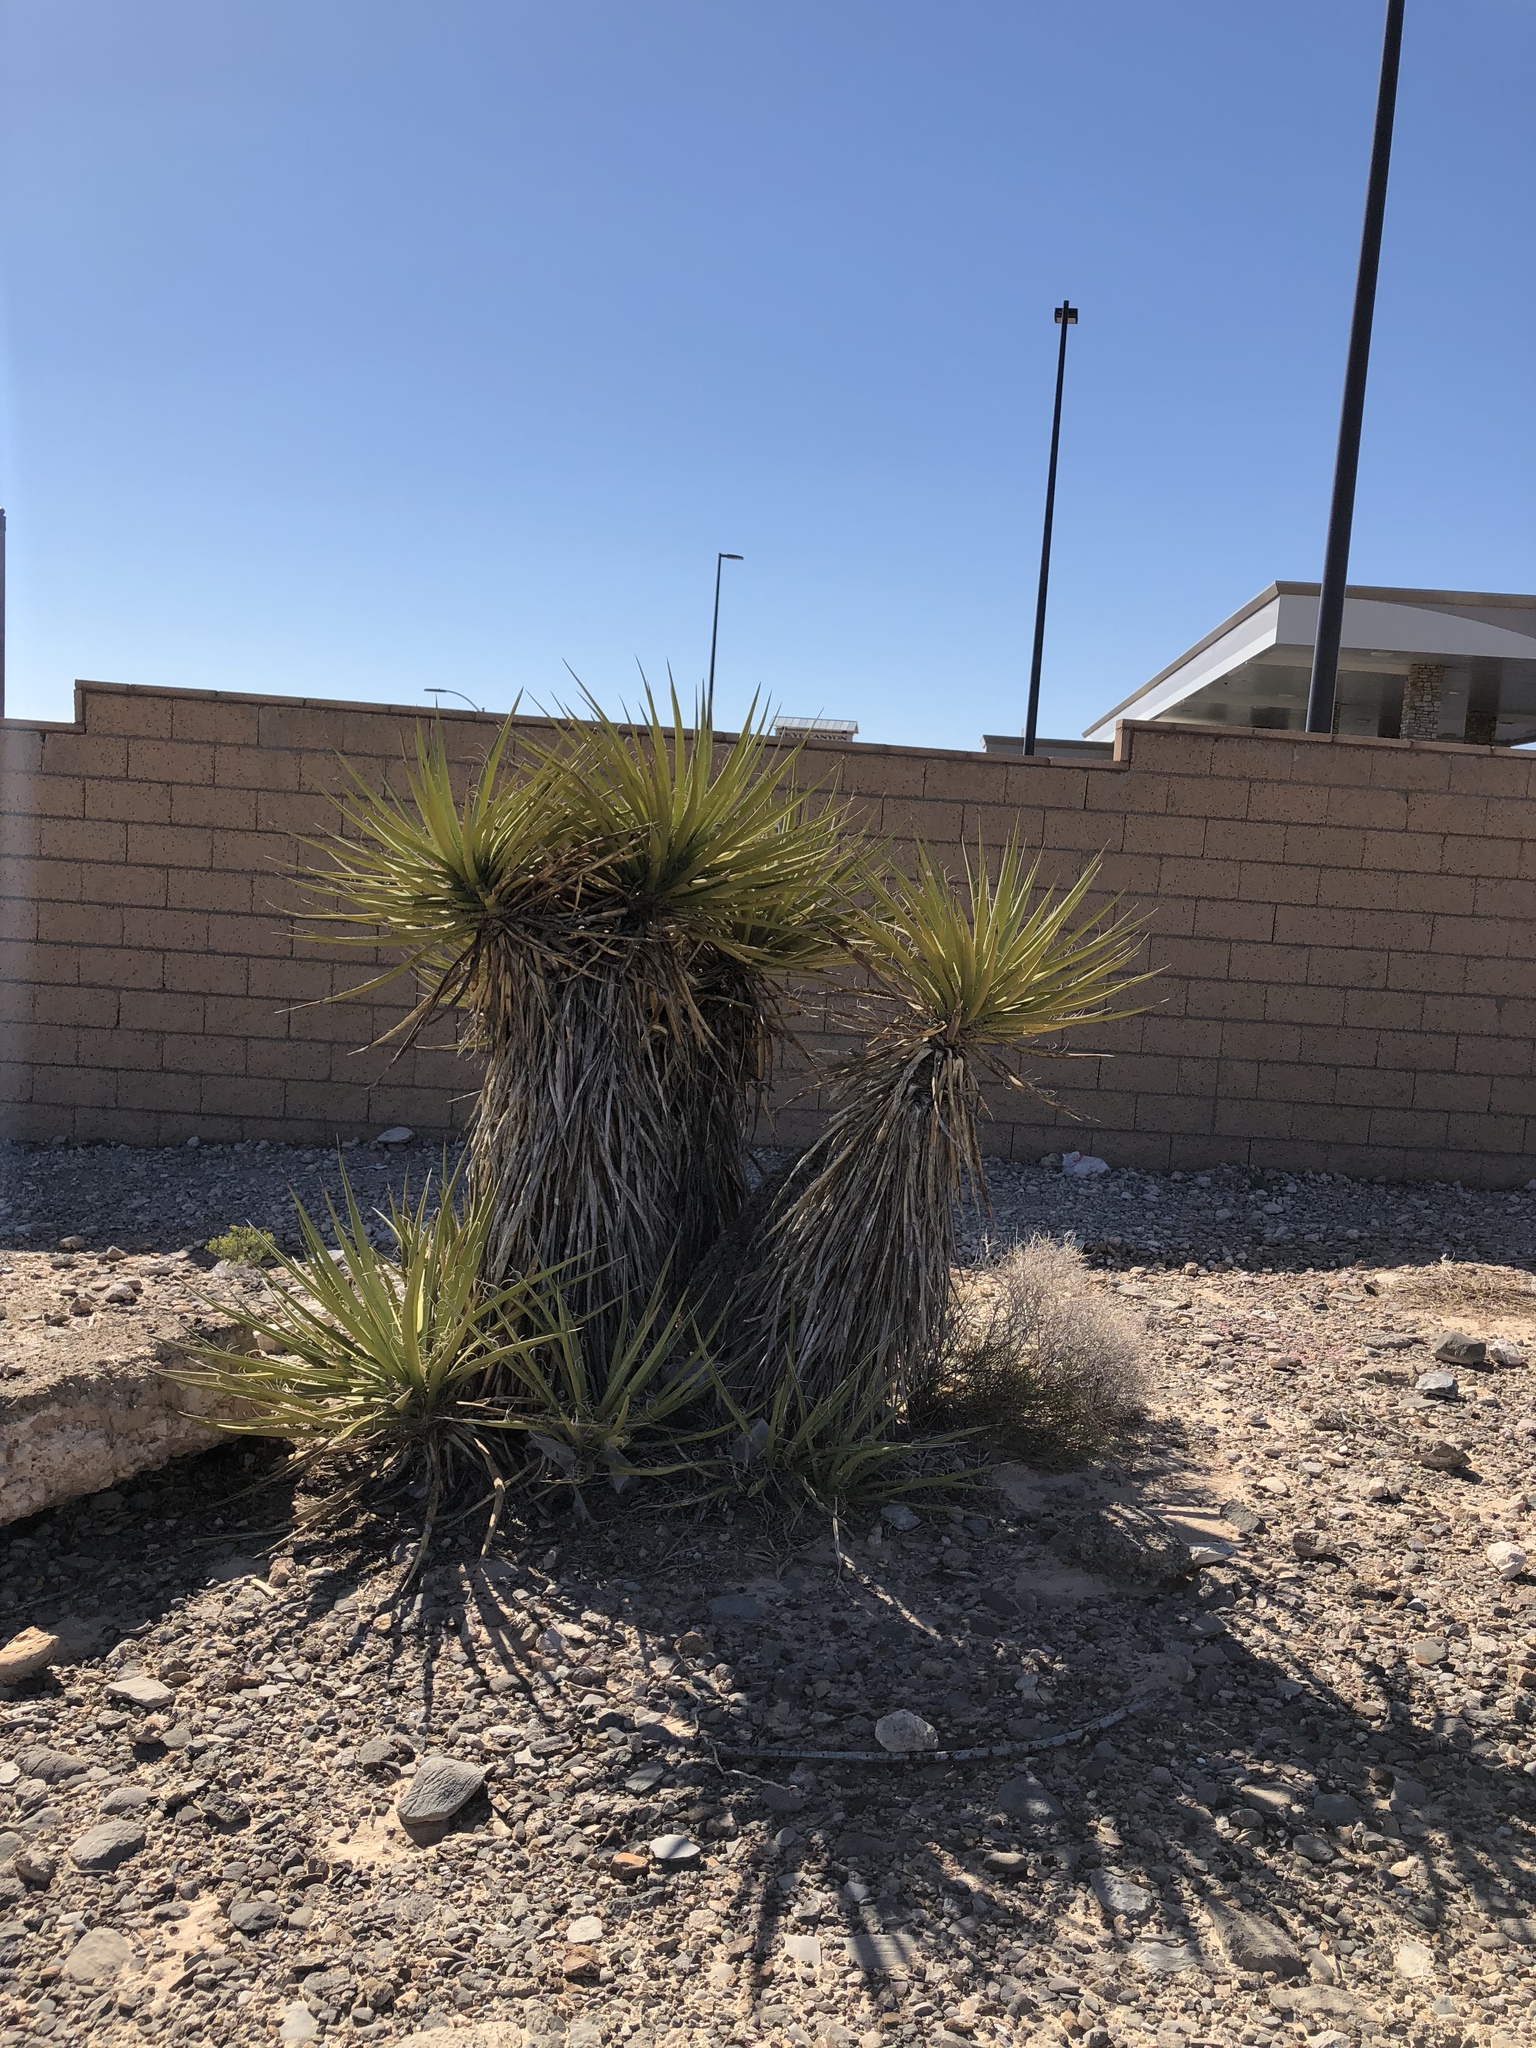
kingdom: Plantae
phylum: Tracheophyta
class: Liliopsida
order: Asparagales
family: Asparagaceae
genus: Yucca
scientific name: Yucca schidigera
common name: Mojave yucca
